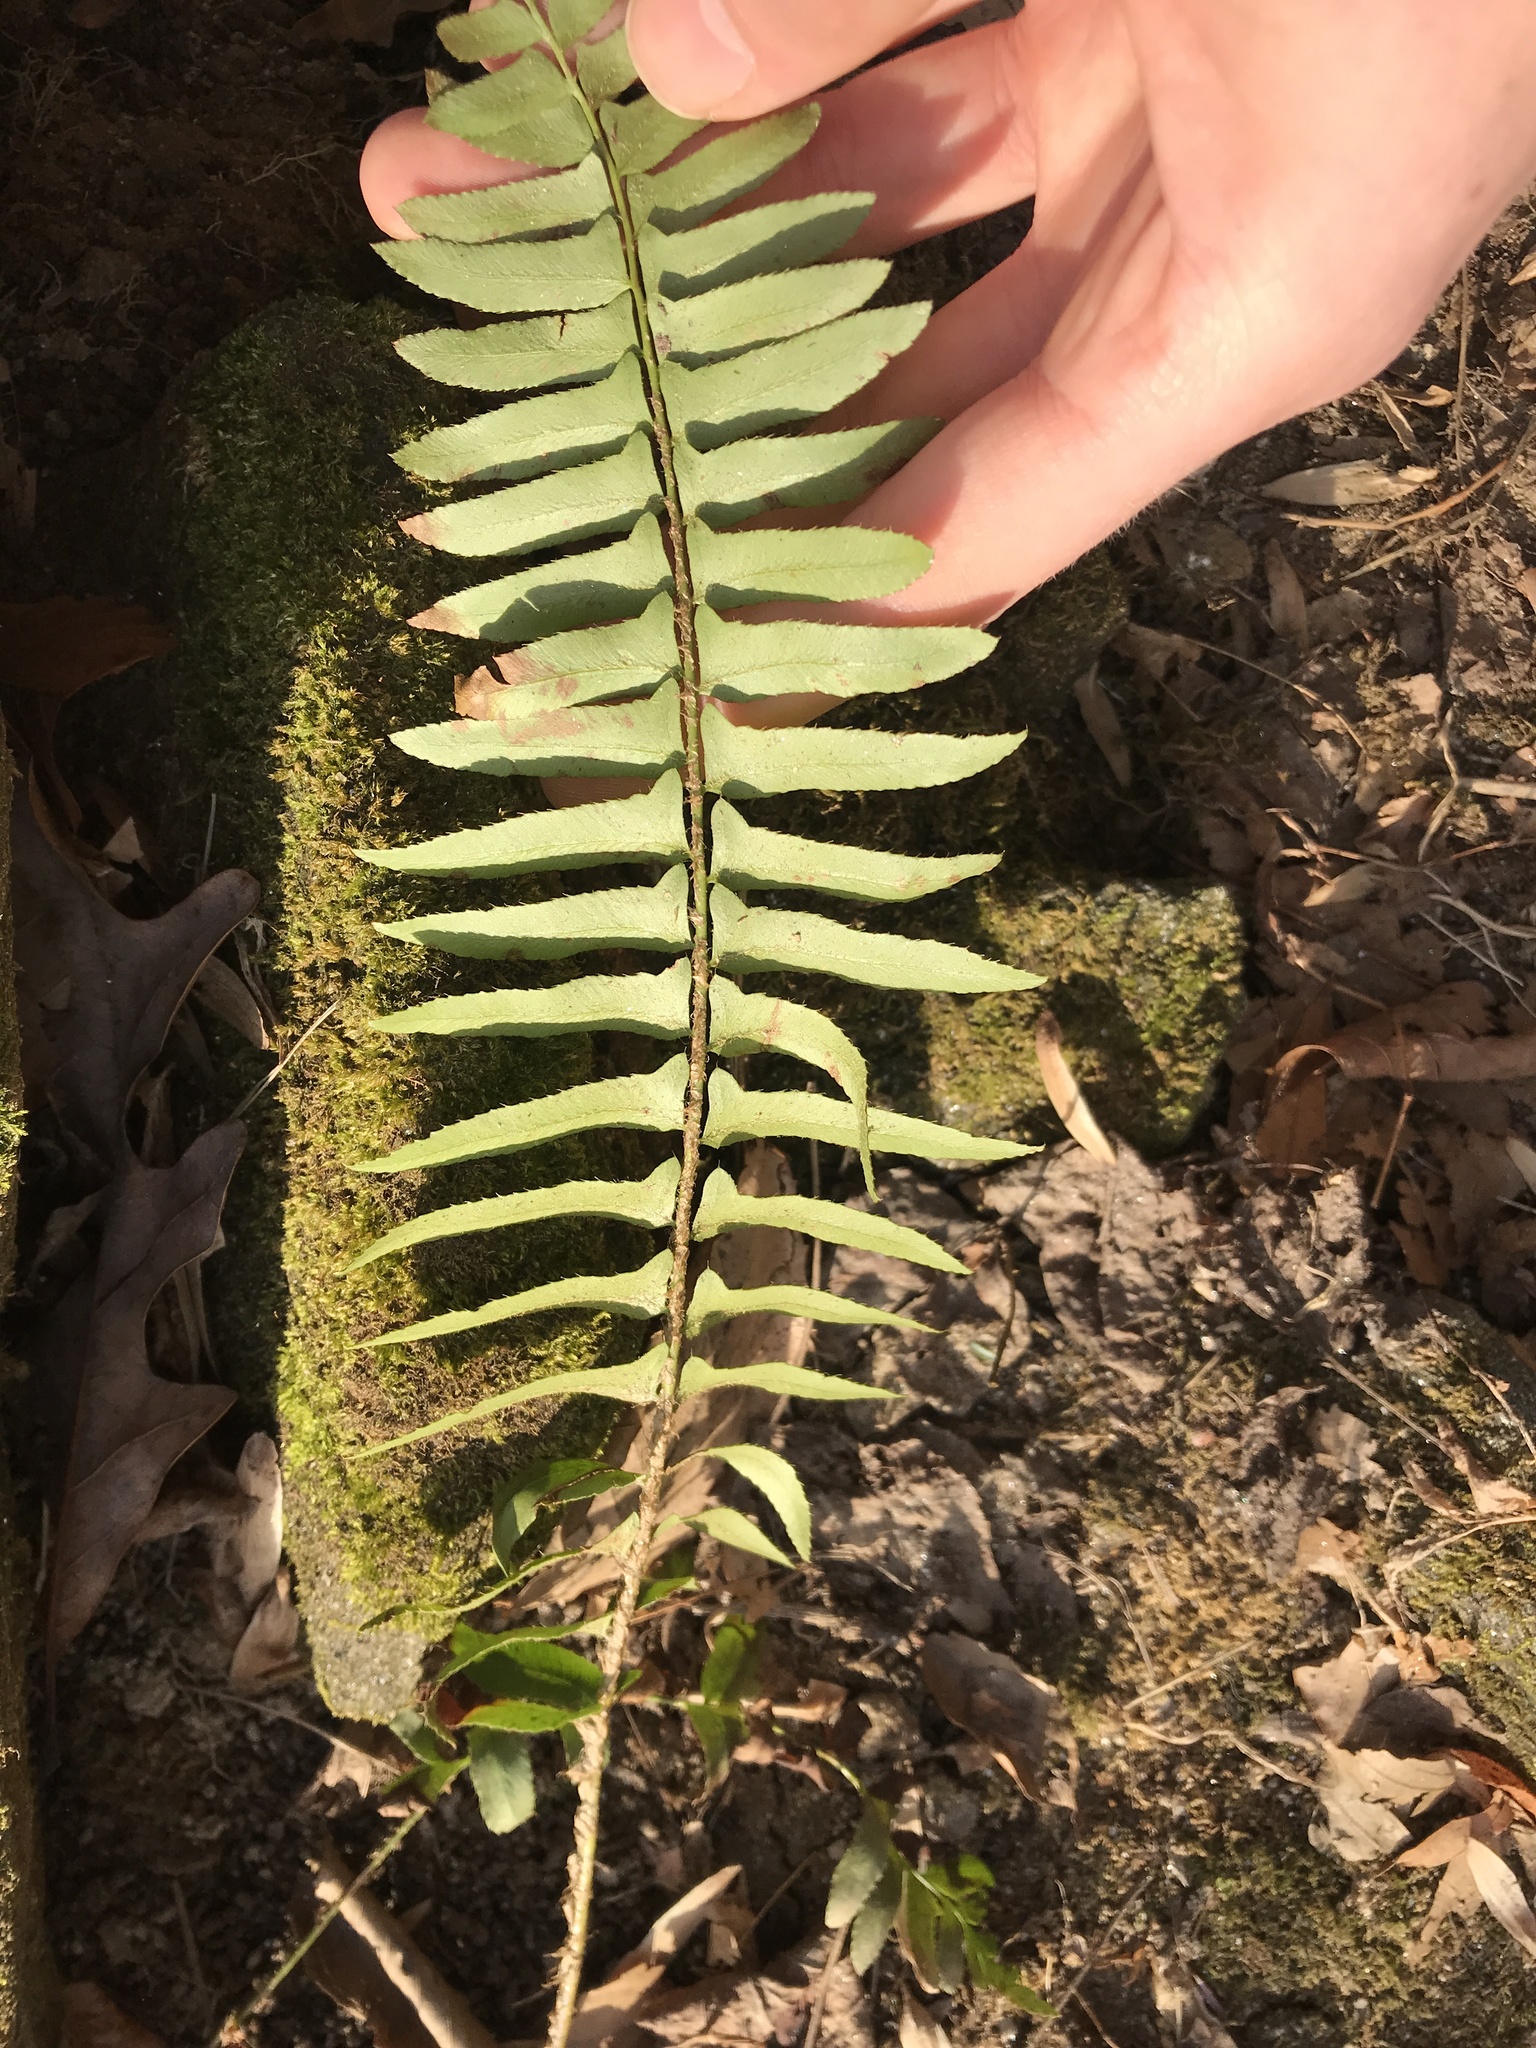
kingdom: Plantae
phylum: Tracheophyta
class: Polypodiopsida
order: Polypodiales
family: Dryopteridaceae
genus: Polystichum
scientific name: Polystichum acrostichoides
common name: Christmas fern
